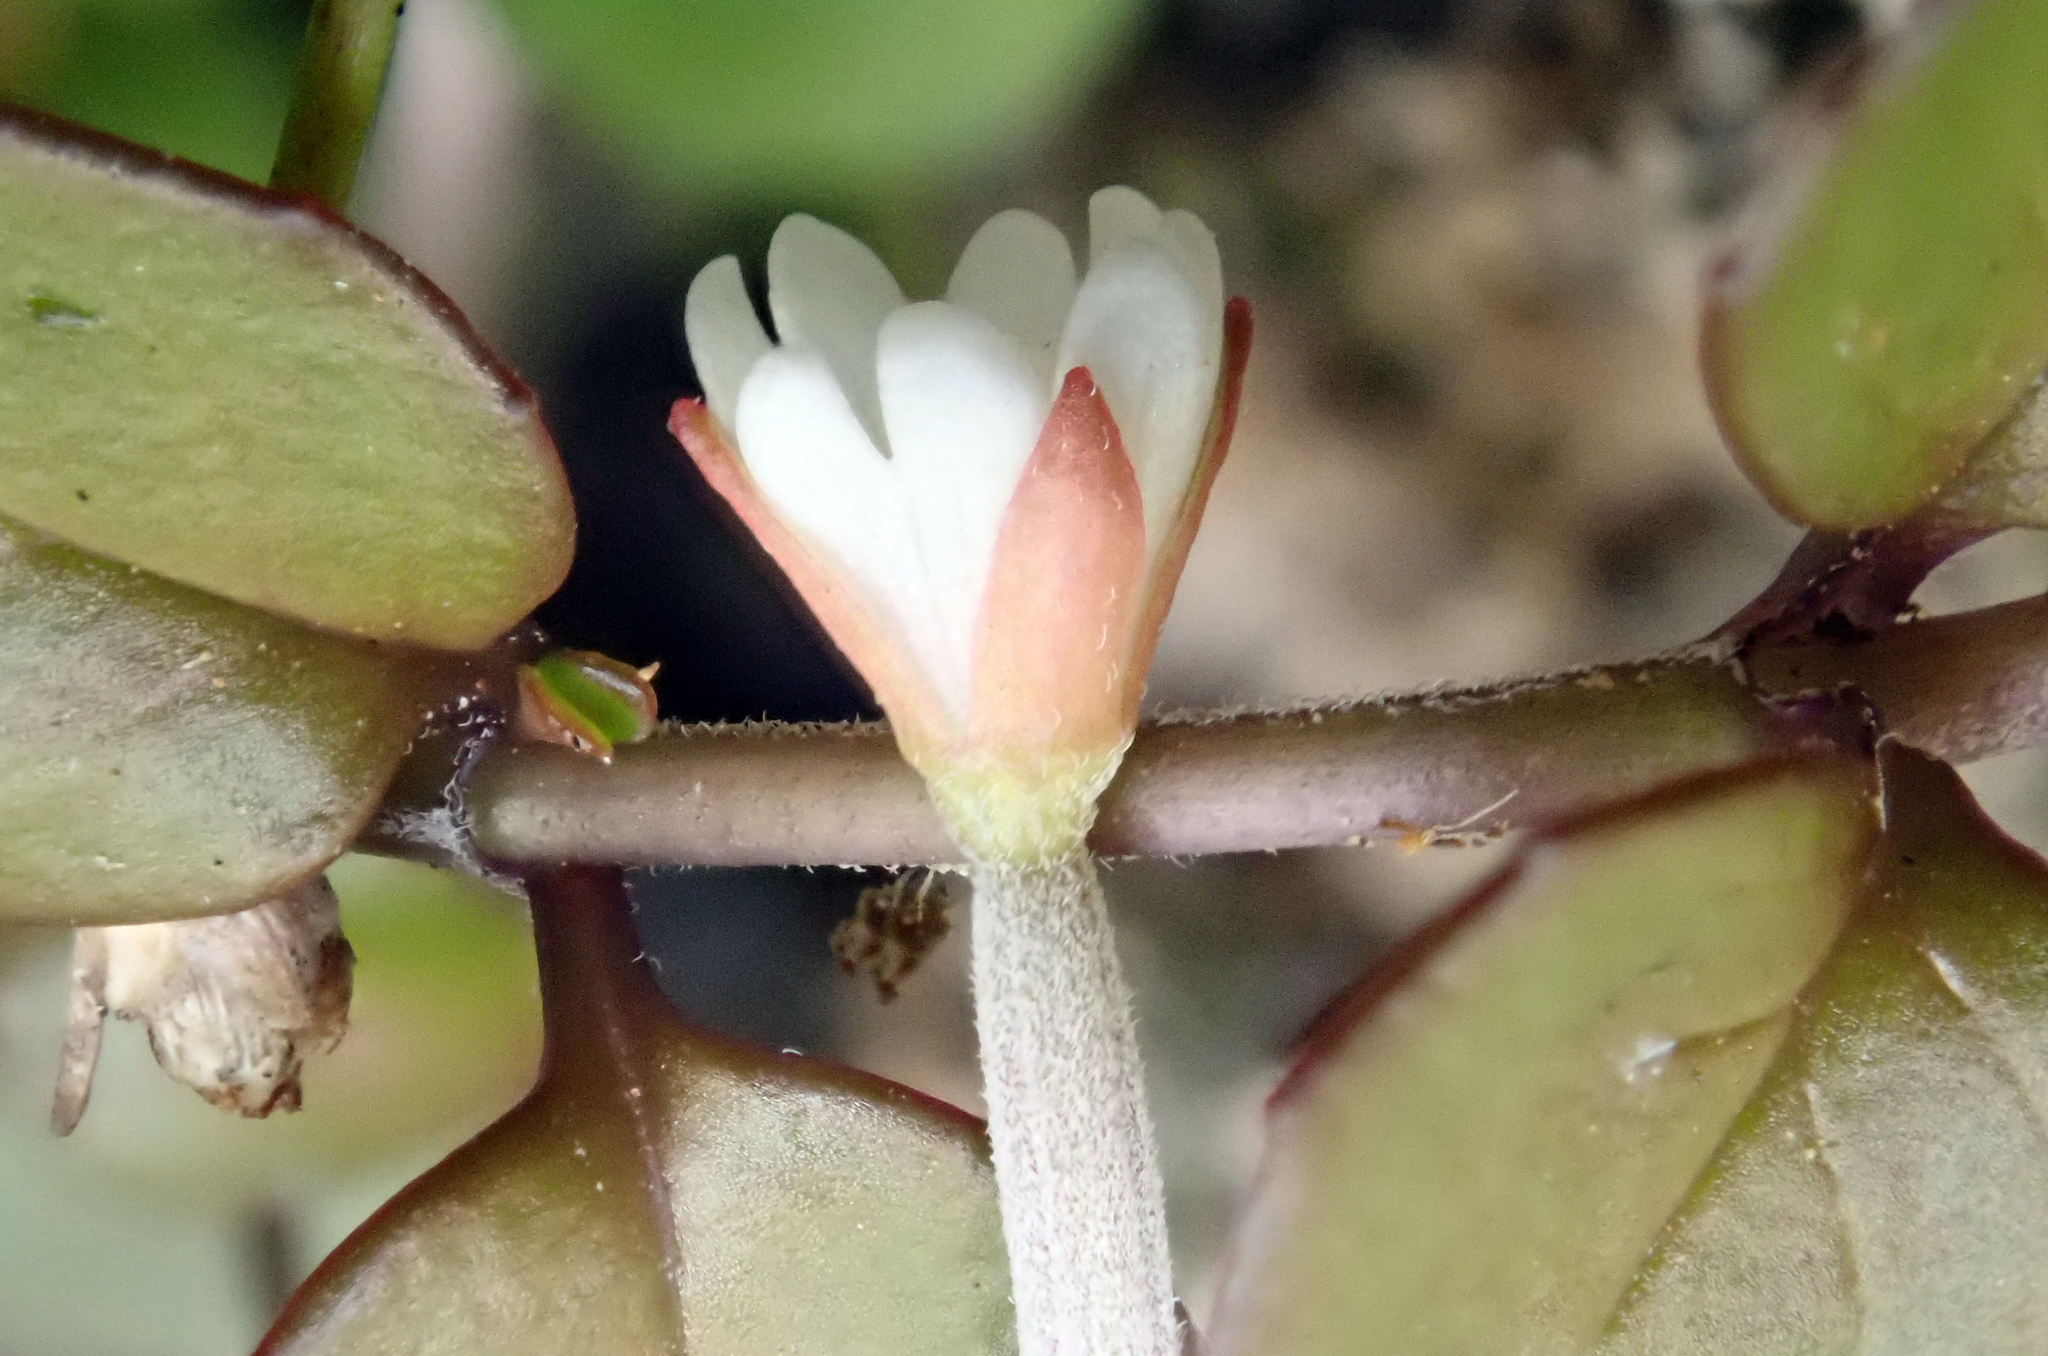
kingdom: Plantae
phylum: Tracheophyta
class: Magnoliopsida
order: Myrtales
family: Onagraceae
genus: Epilobium
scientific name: Epilobium nummularifolium
